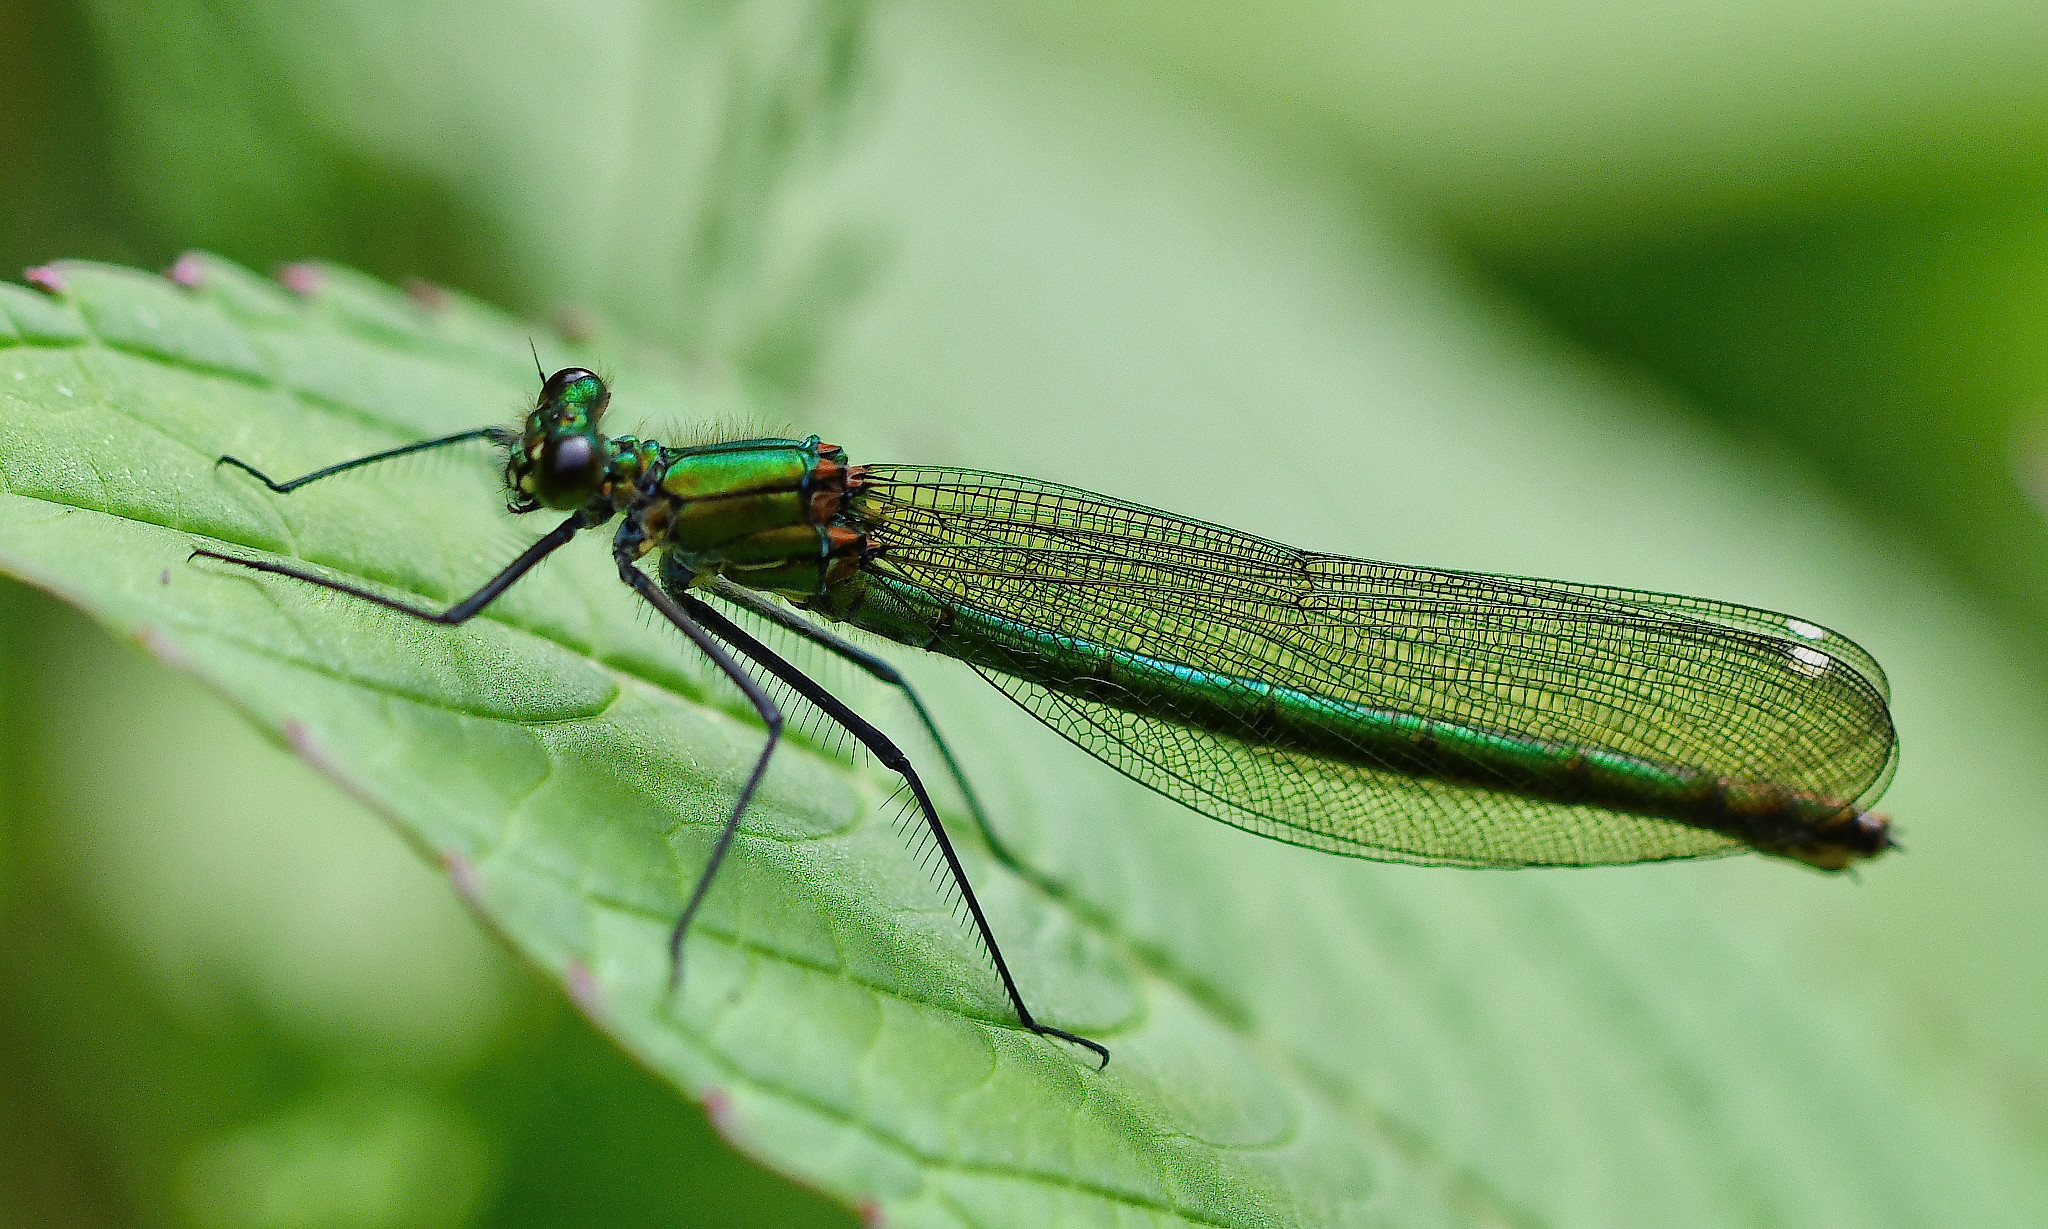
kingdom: Animalia
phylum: Arthropoda
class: Insecta
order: Odonata
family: Calopterygidae
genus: Calopteryx
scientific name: Calopteryx splendens
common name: Banded demoiselle
